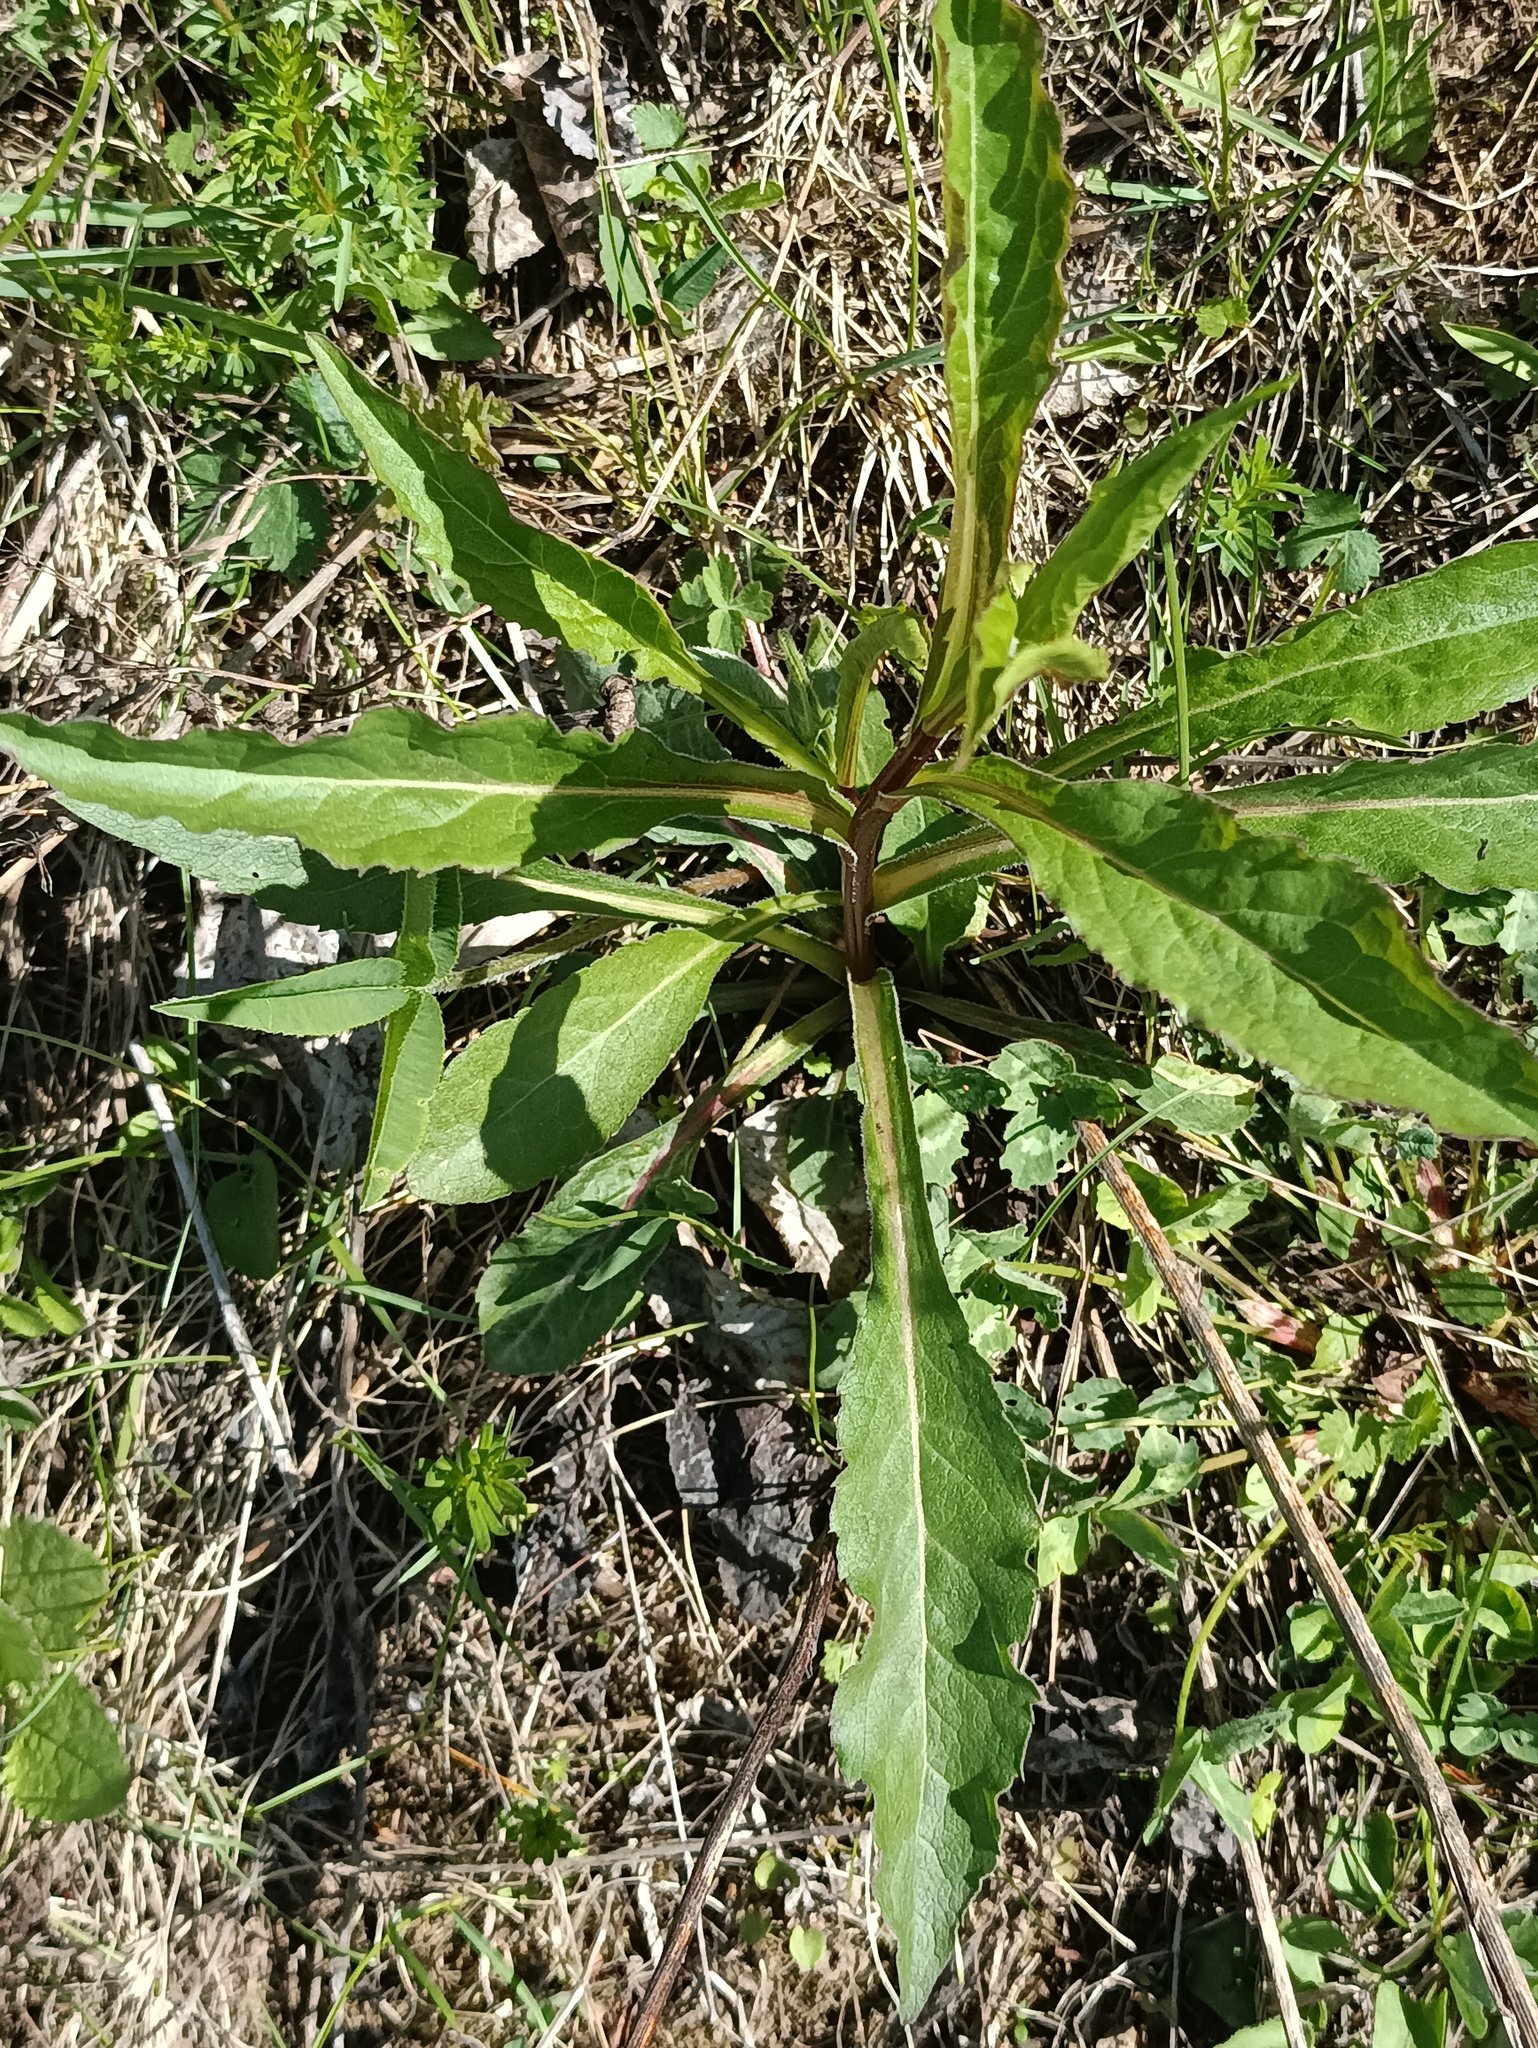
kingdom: Plantae
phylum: Tracheophyta
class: Magnoliopsida
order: Asterales
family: Asteraceae
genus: Solidago
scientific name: Solidago virgaurea
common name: Goldenrod
